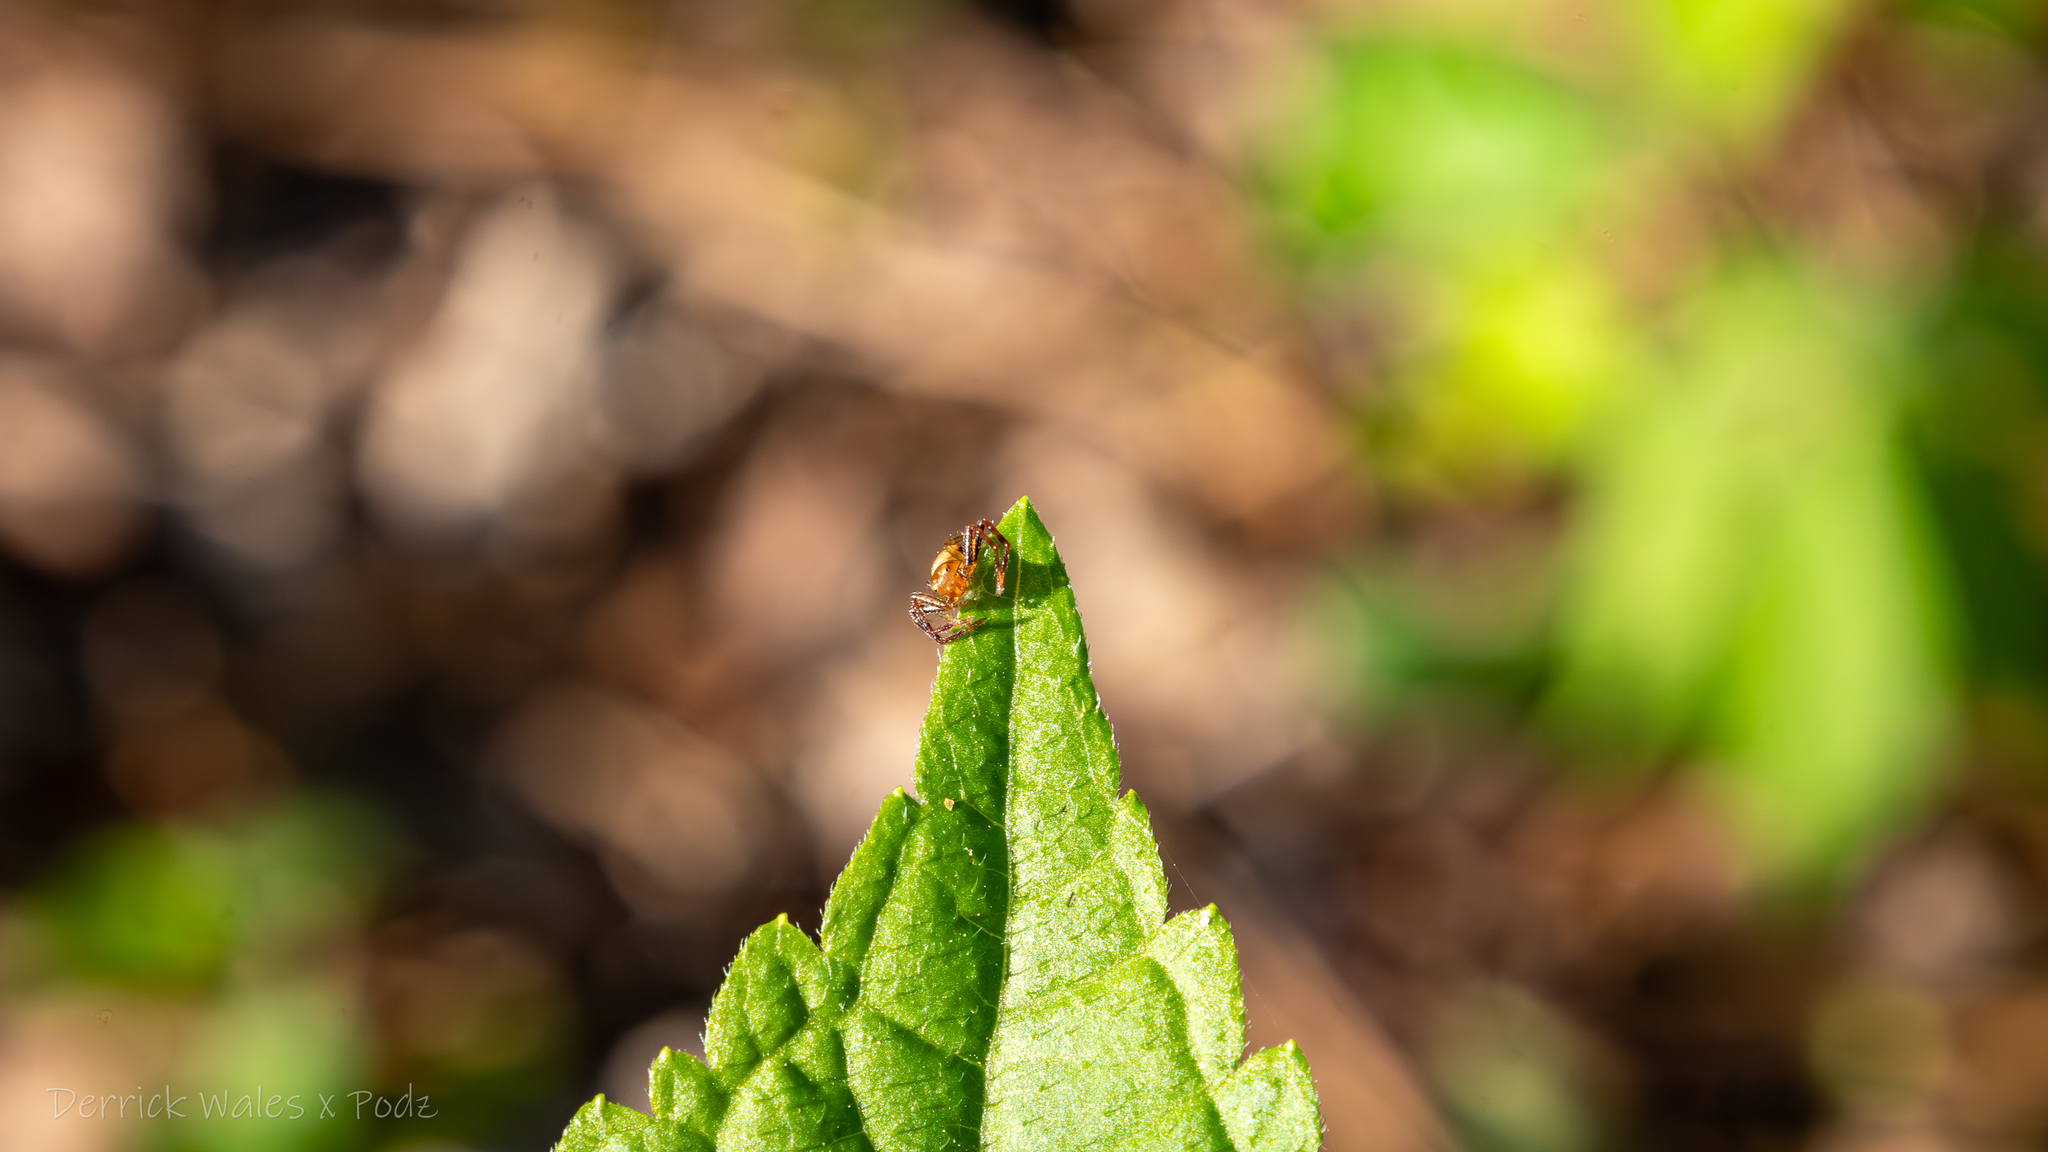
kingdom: Animalia
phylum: Arthropoda
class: Arachnida
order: Araneae
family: Thomisidae
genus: Synema
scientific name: Synema parvulum
